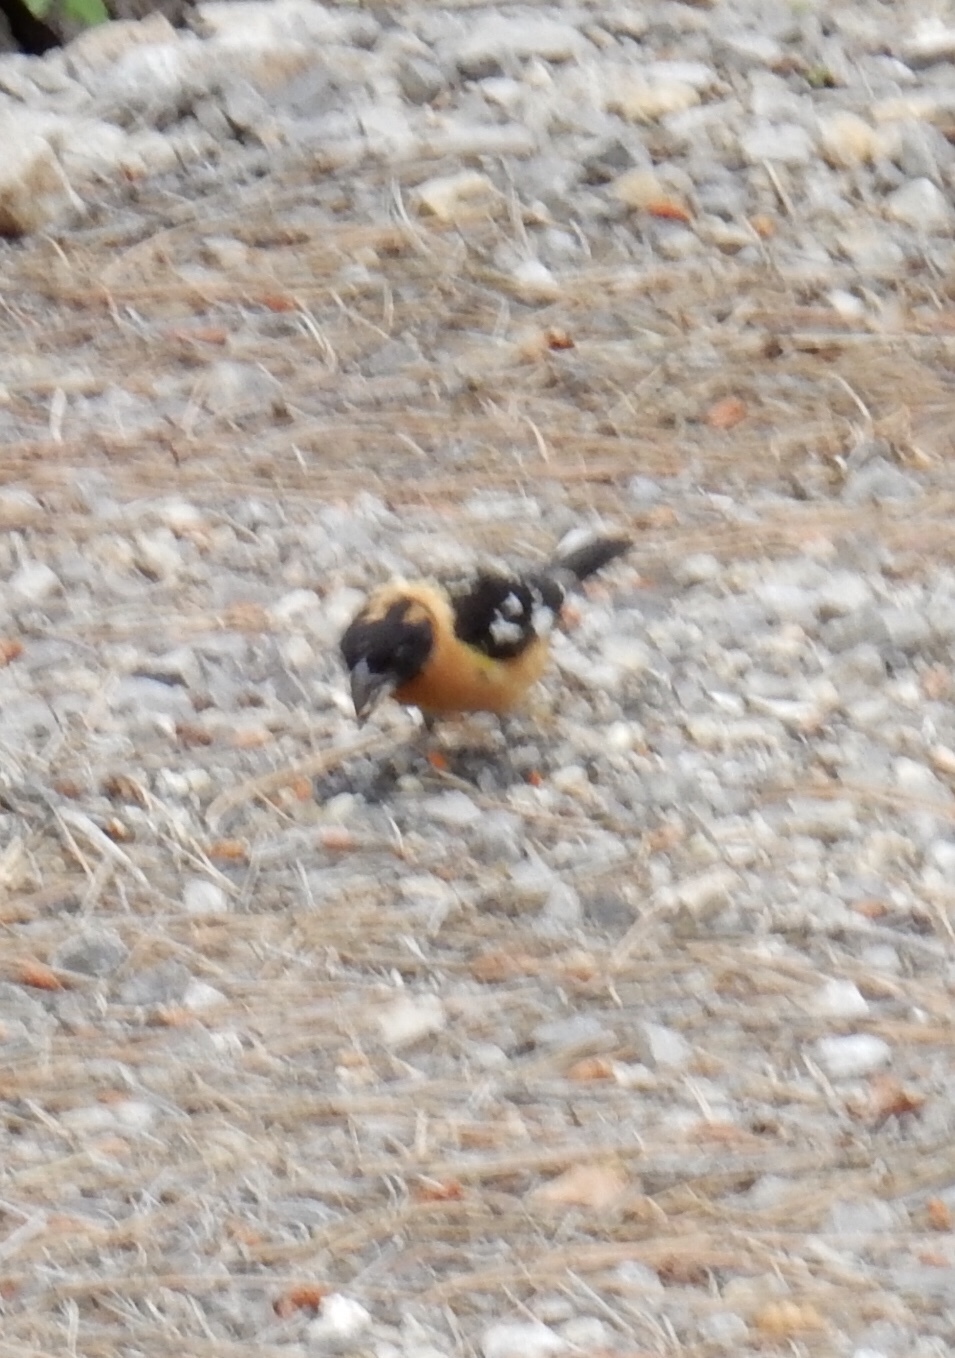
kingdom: Animalia
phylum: Chordata
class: Aves
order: Passeriformes
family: Cardinalidae
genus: Pheucticus
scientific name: Pheucticus melanocephalus
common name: Black-headed grosbeak
